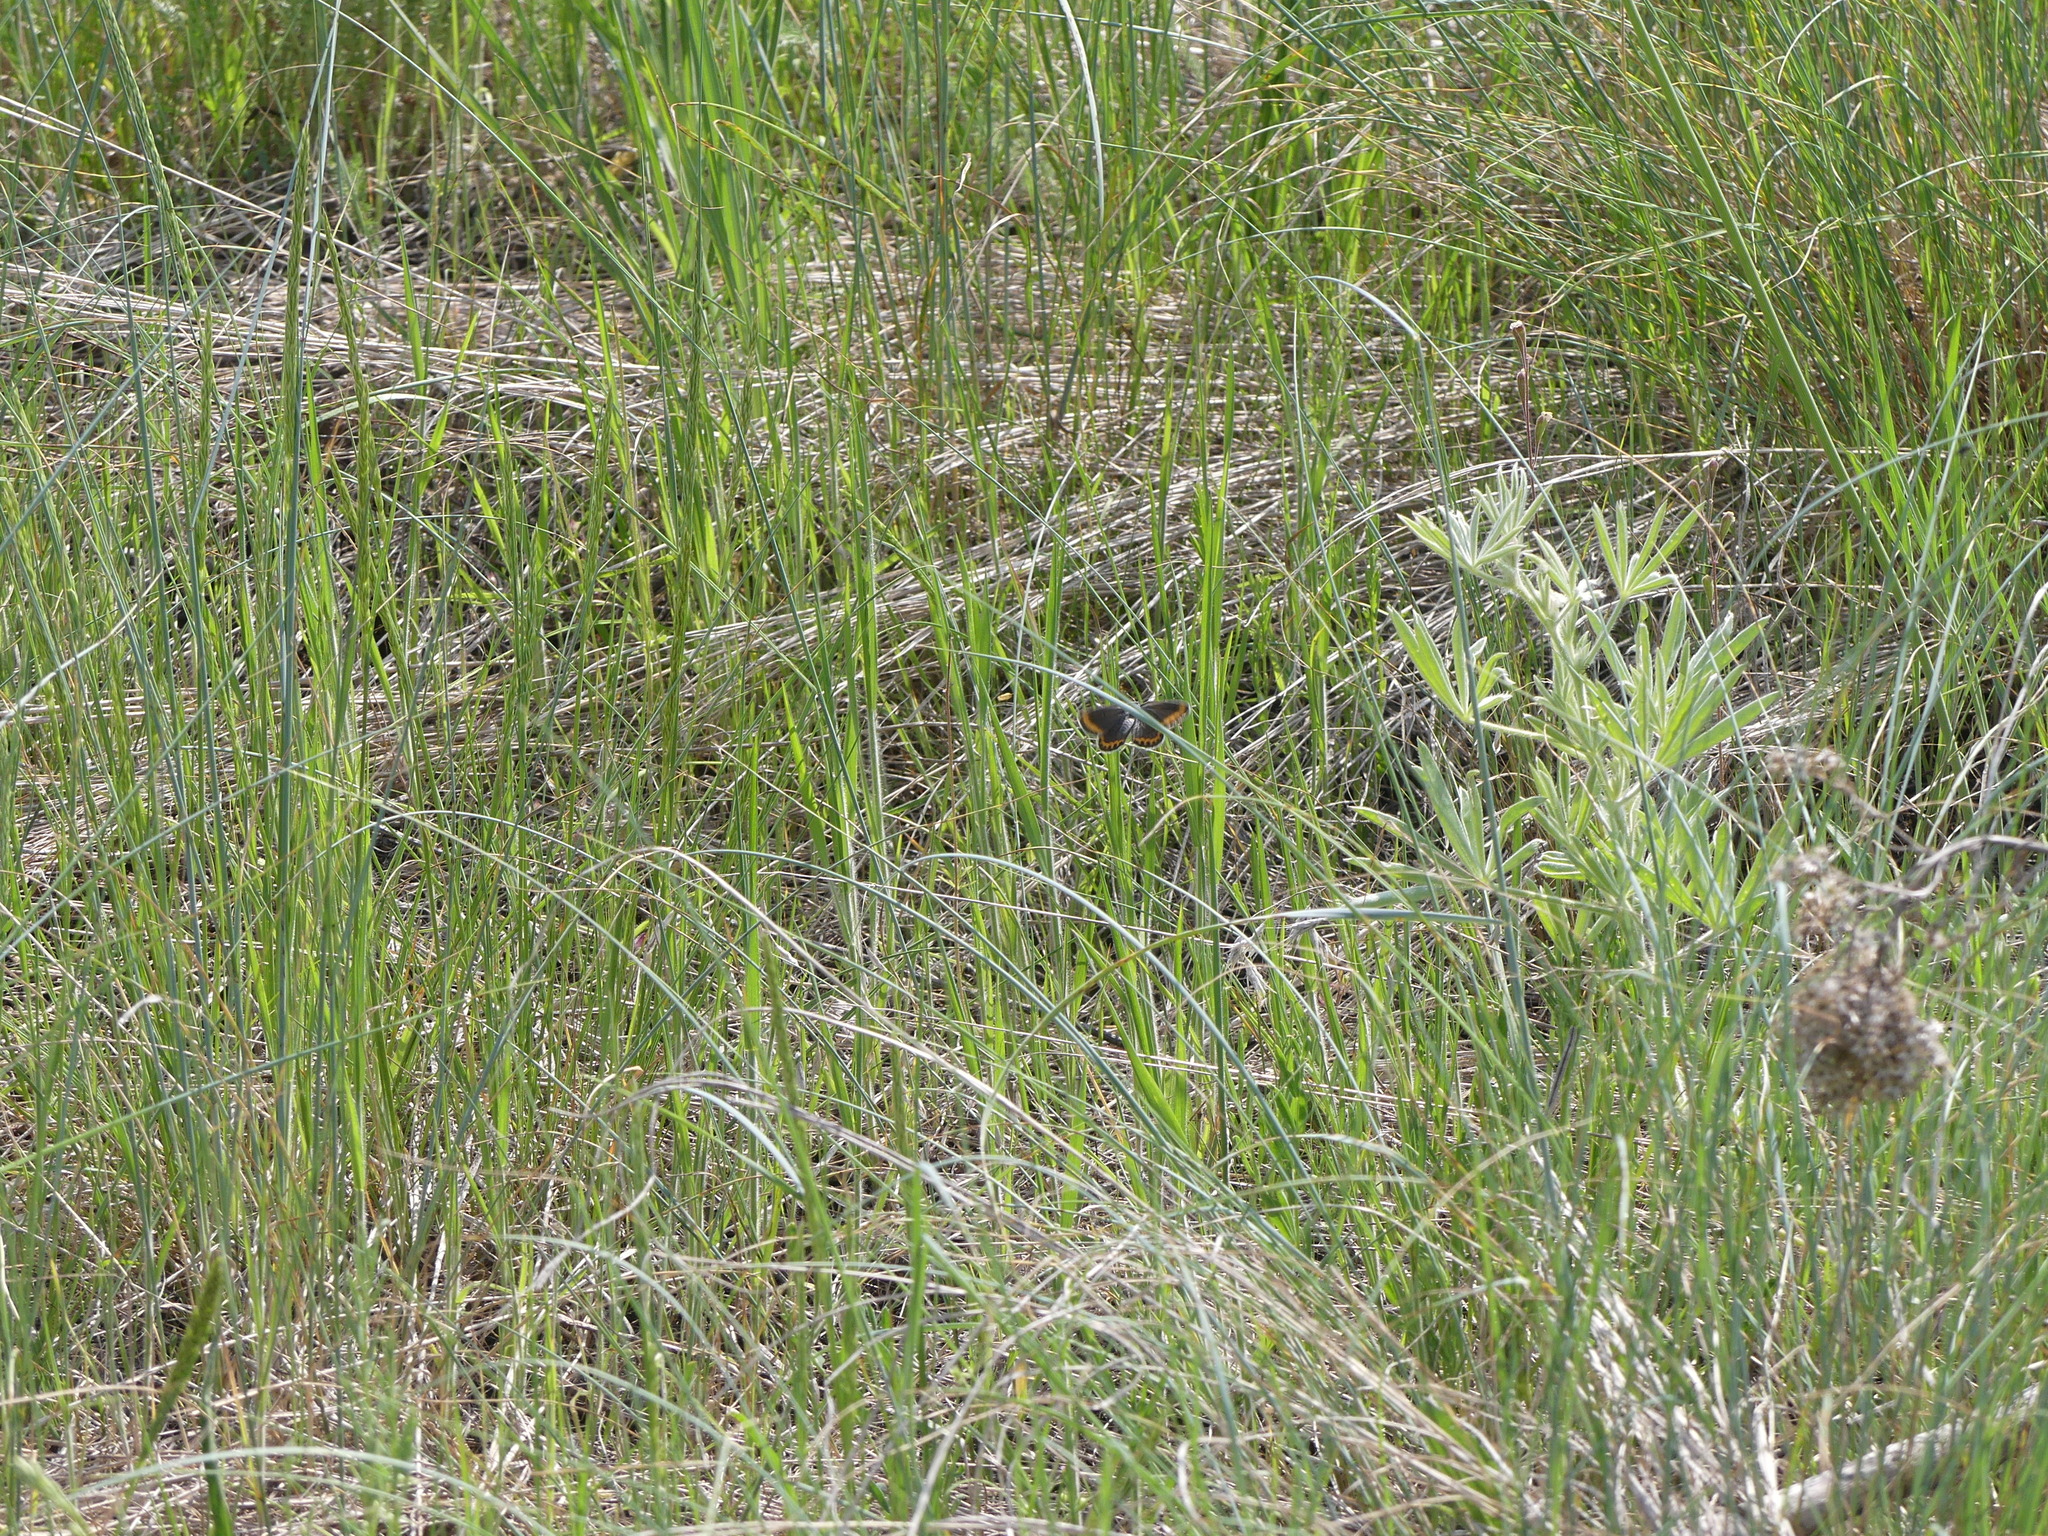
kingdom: Animalia
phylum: Arthropoda
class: Insecta
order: Lepidoptera
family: Lycaenidae
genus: Lycaeides
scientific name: Lycaeides melissa
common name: Melissa blue
